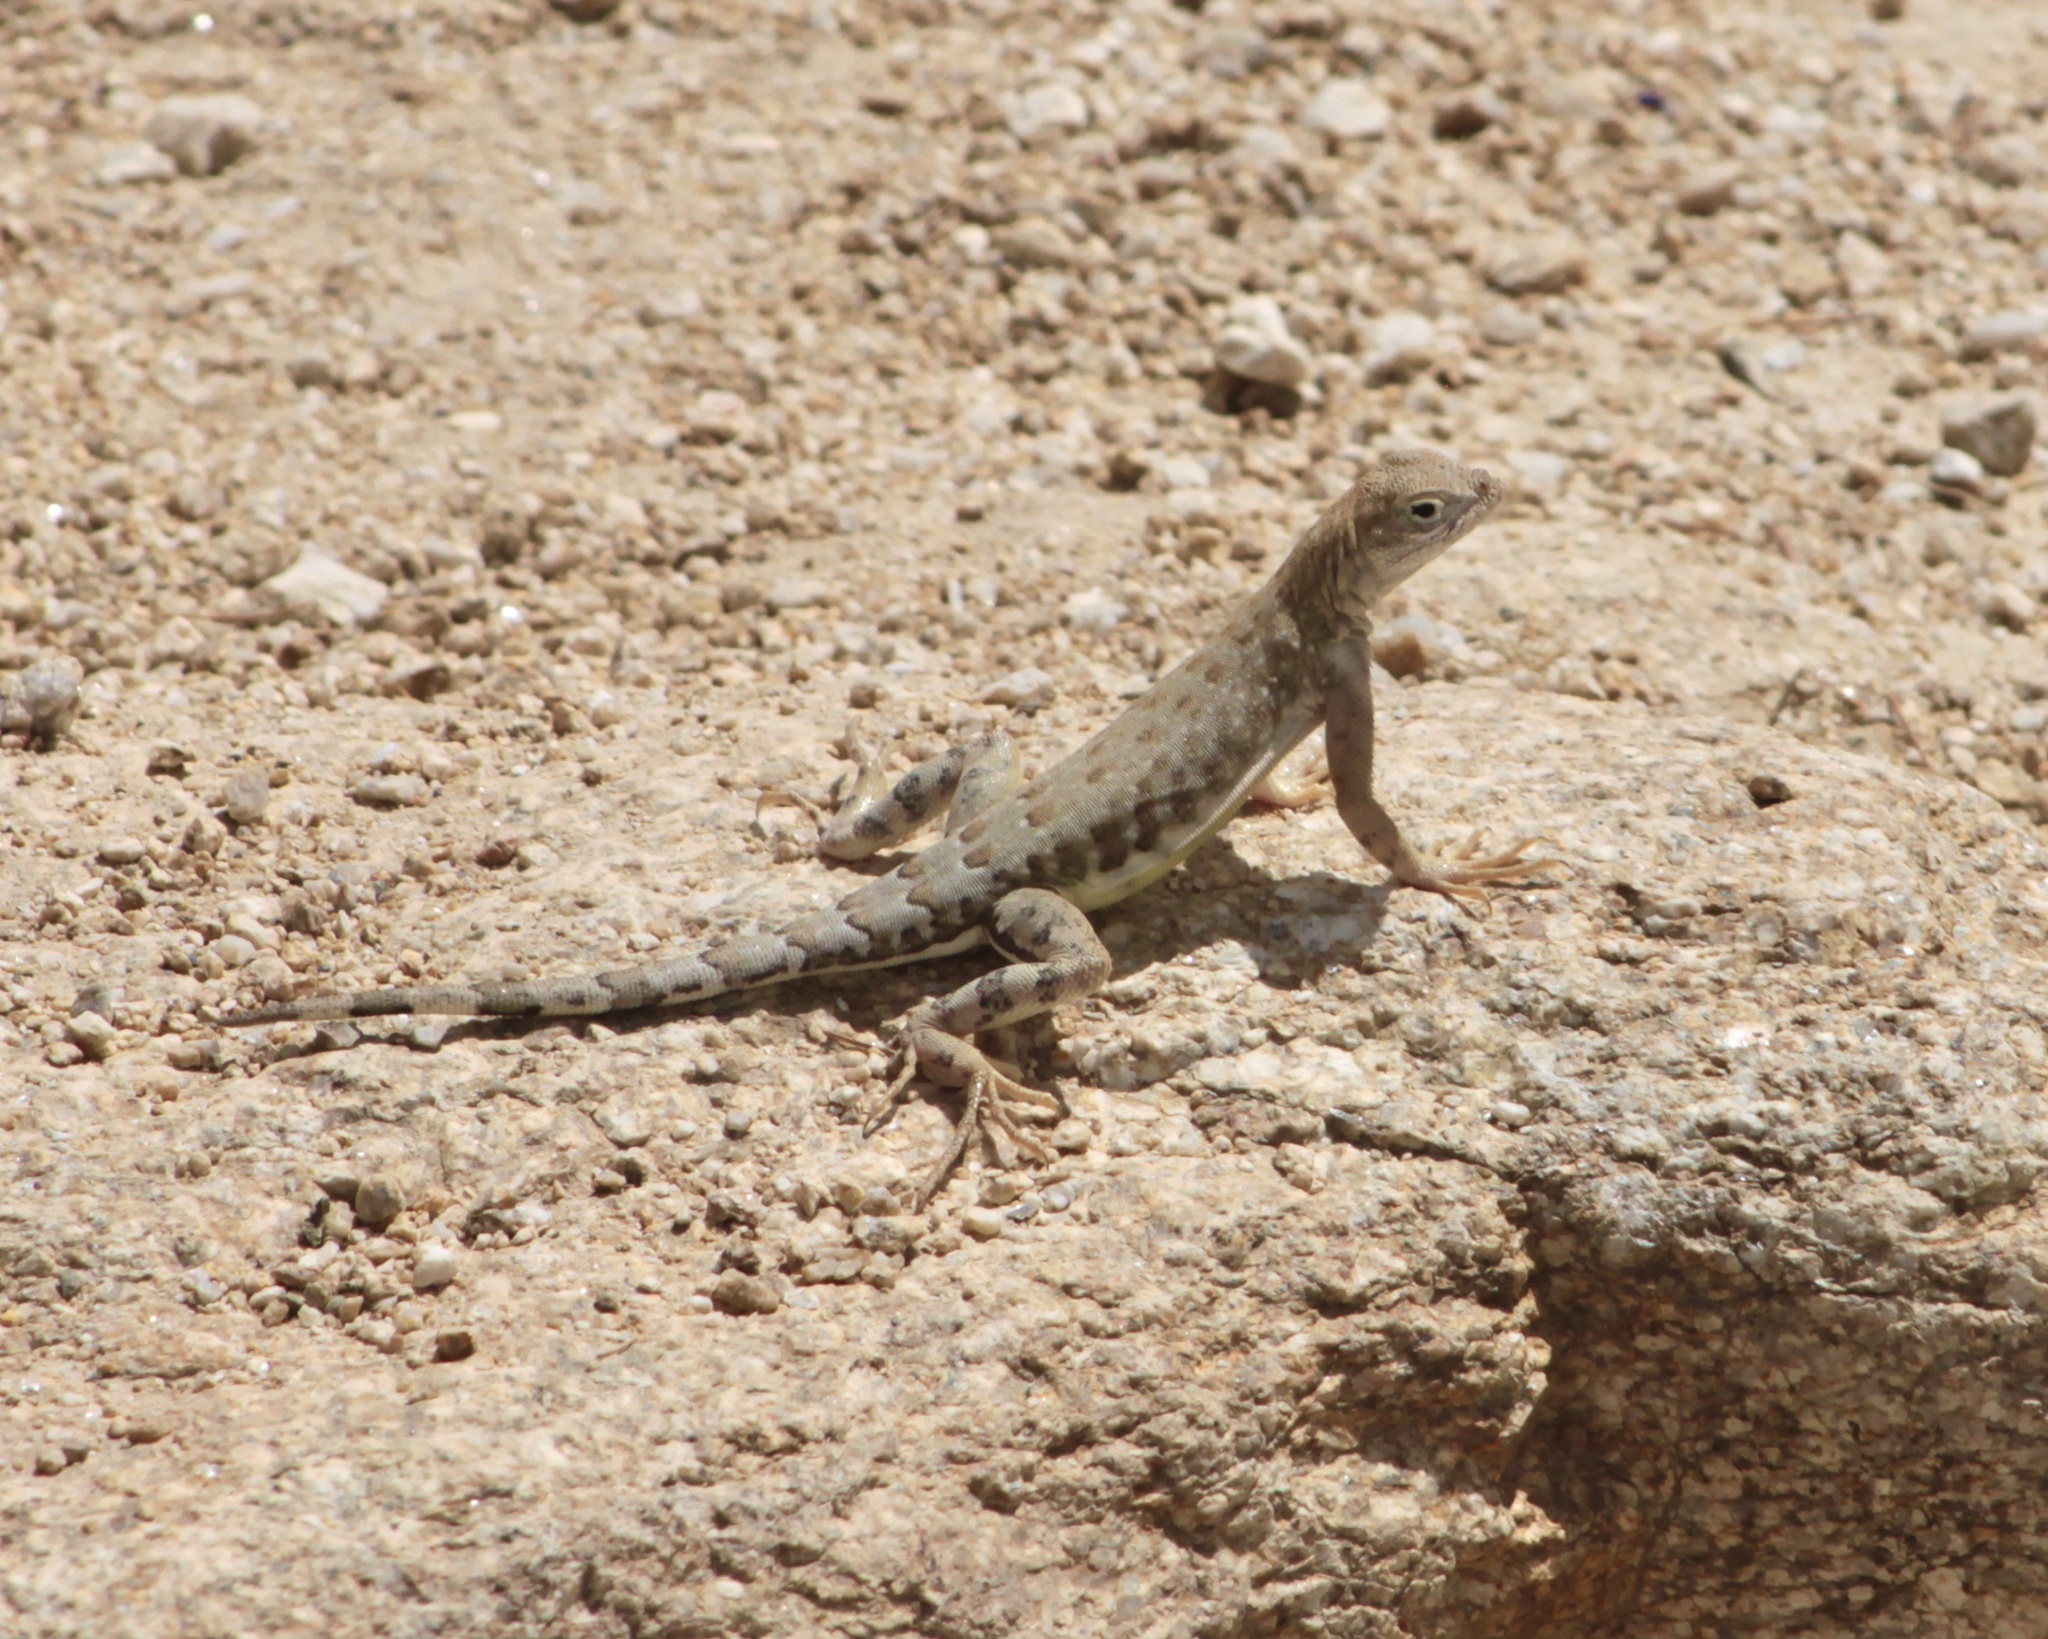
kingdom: Animalia
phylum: Chordata
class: Squamata
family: Phrynosomatidae
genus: Cophosaurus
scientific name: Cophosaurus texanus
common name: Greater earless lizard
